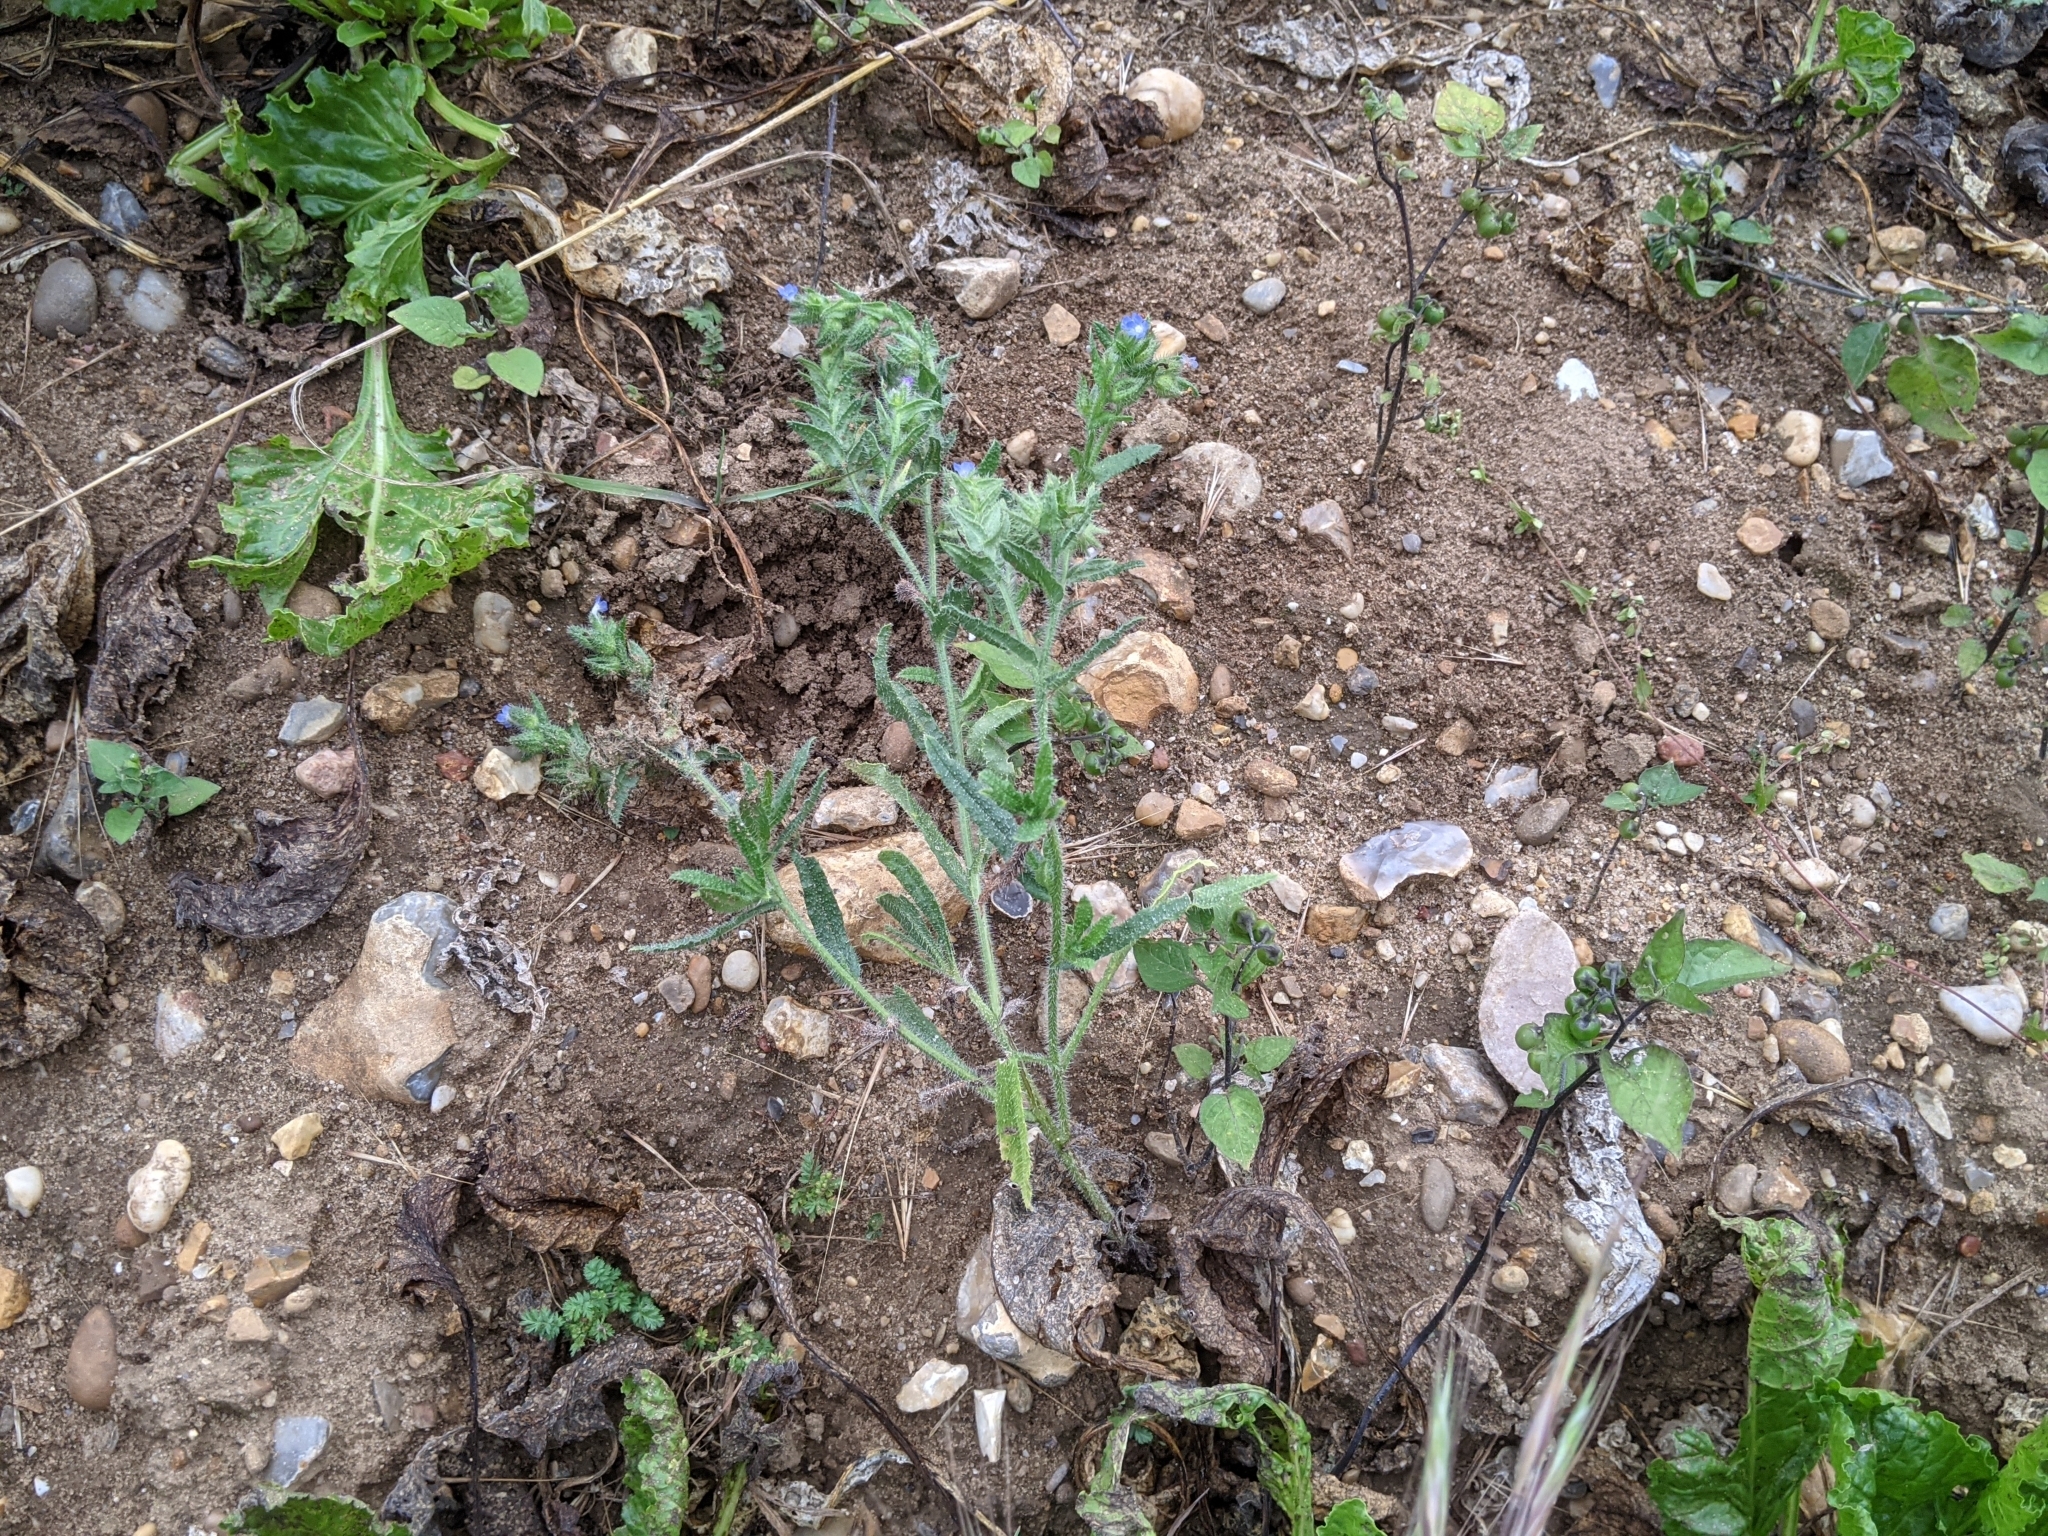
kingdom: Plantae
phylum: Tracheophyta
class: Magnoliopsida
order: Boraginales
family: Boraginaceae
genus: Lycopsis
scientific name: Lycopsis arvensis
